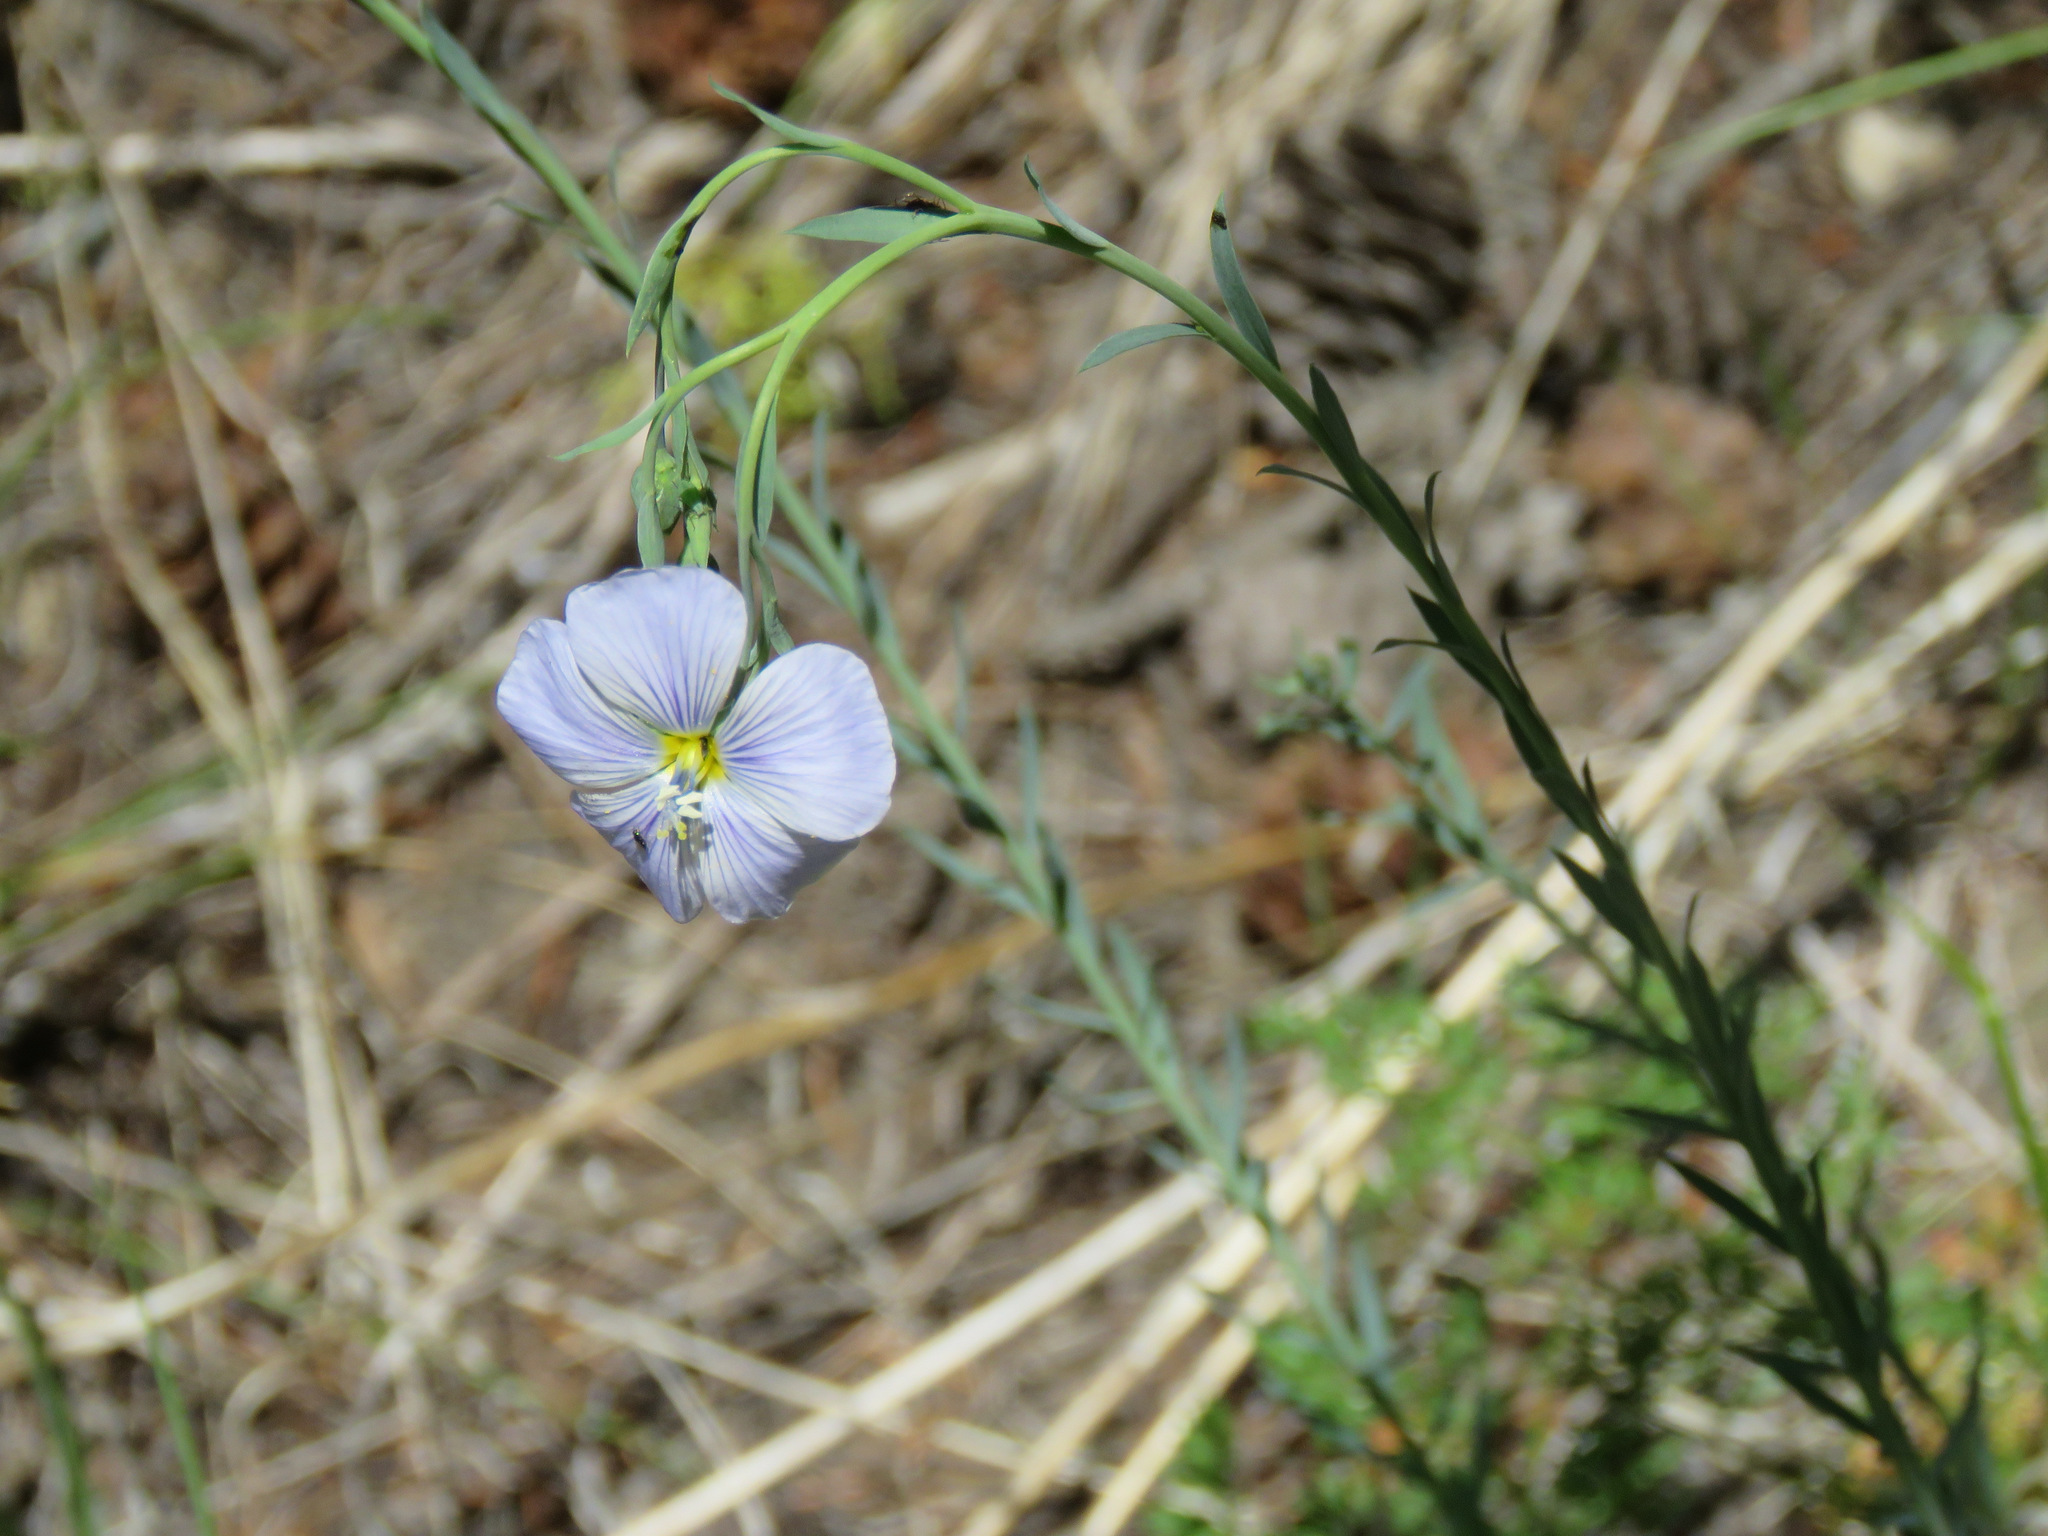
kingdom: Plantae
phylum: Tracheophyta
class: Magnoliopsida
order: Malpighiales
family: Linaceae
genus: Linum
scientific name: Linum lewisii
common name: Prairie flax
